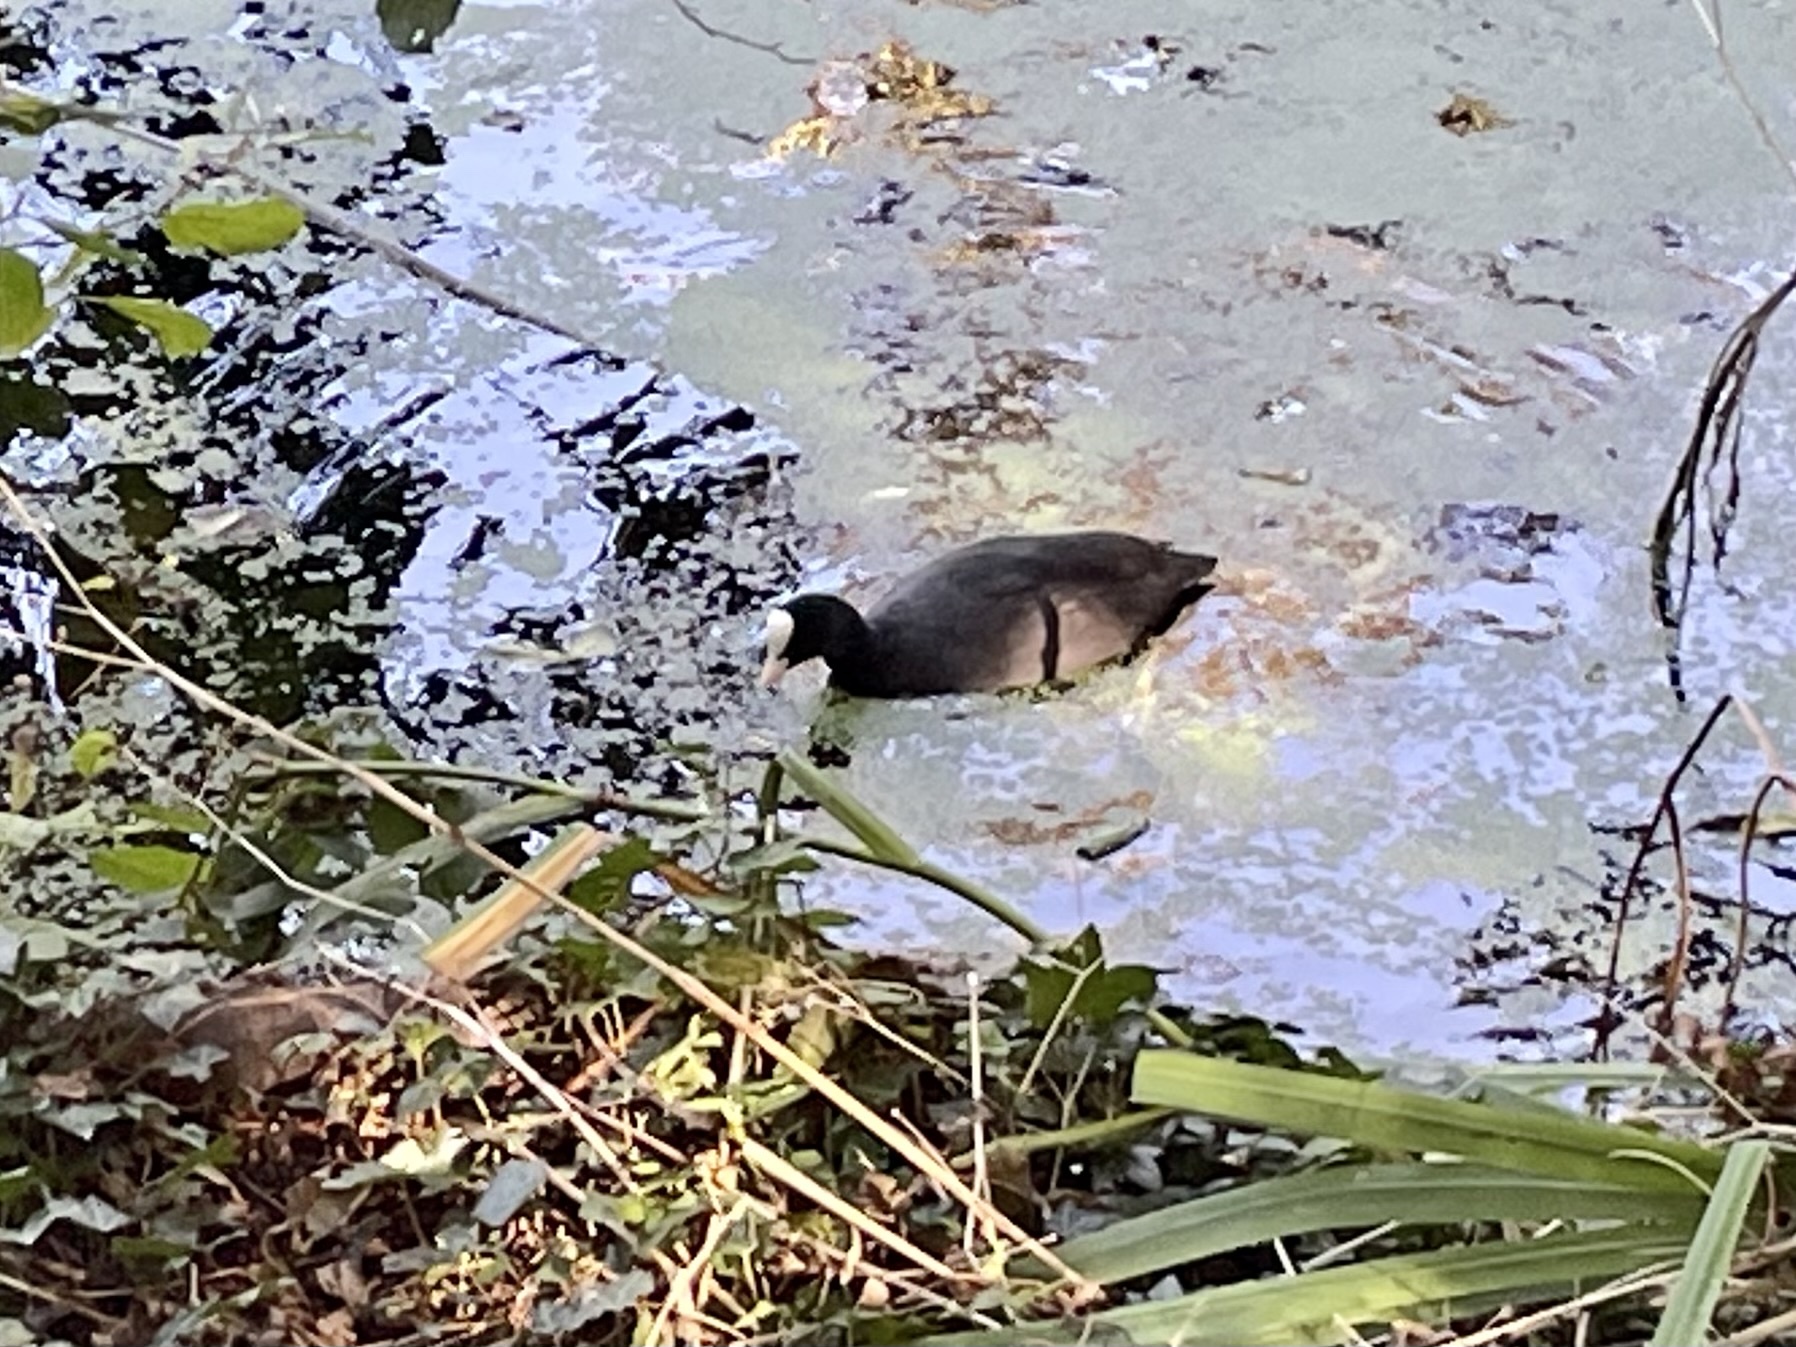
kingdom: Animalia
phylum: Chordata
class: Aves
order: Gruiformes
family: Rallidae
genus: Fulica
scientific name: Fulica atra
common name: Eurasian coot
